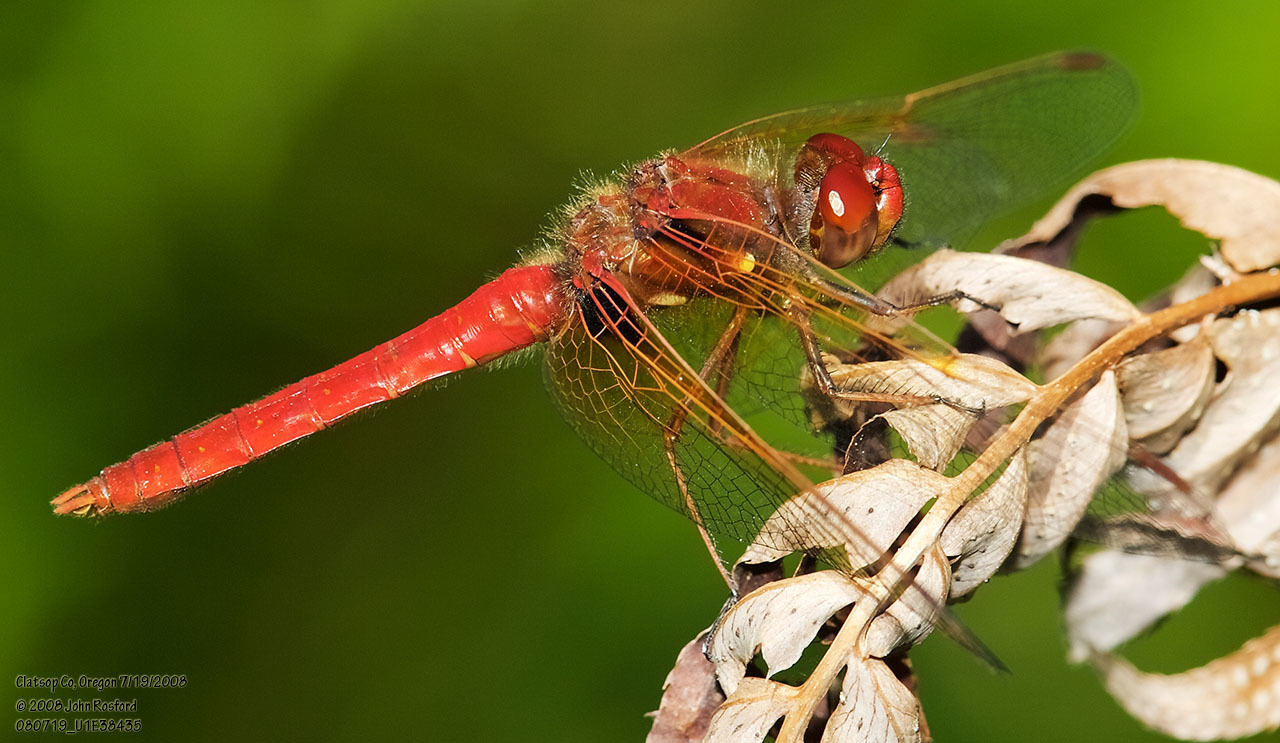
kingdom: Animalia
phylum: Arthropoda
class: Insecta
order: Odonata
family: Libellulidae
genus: Sympetrum
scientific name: Sympetrum illotum
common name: Cardinal meadowhawk
